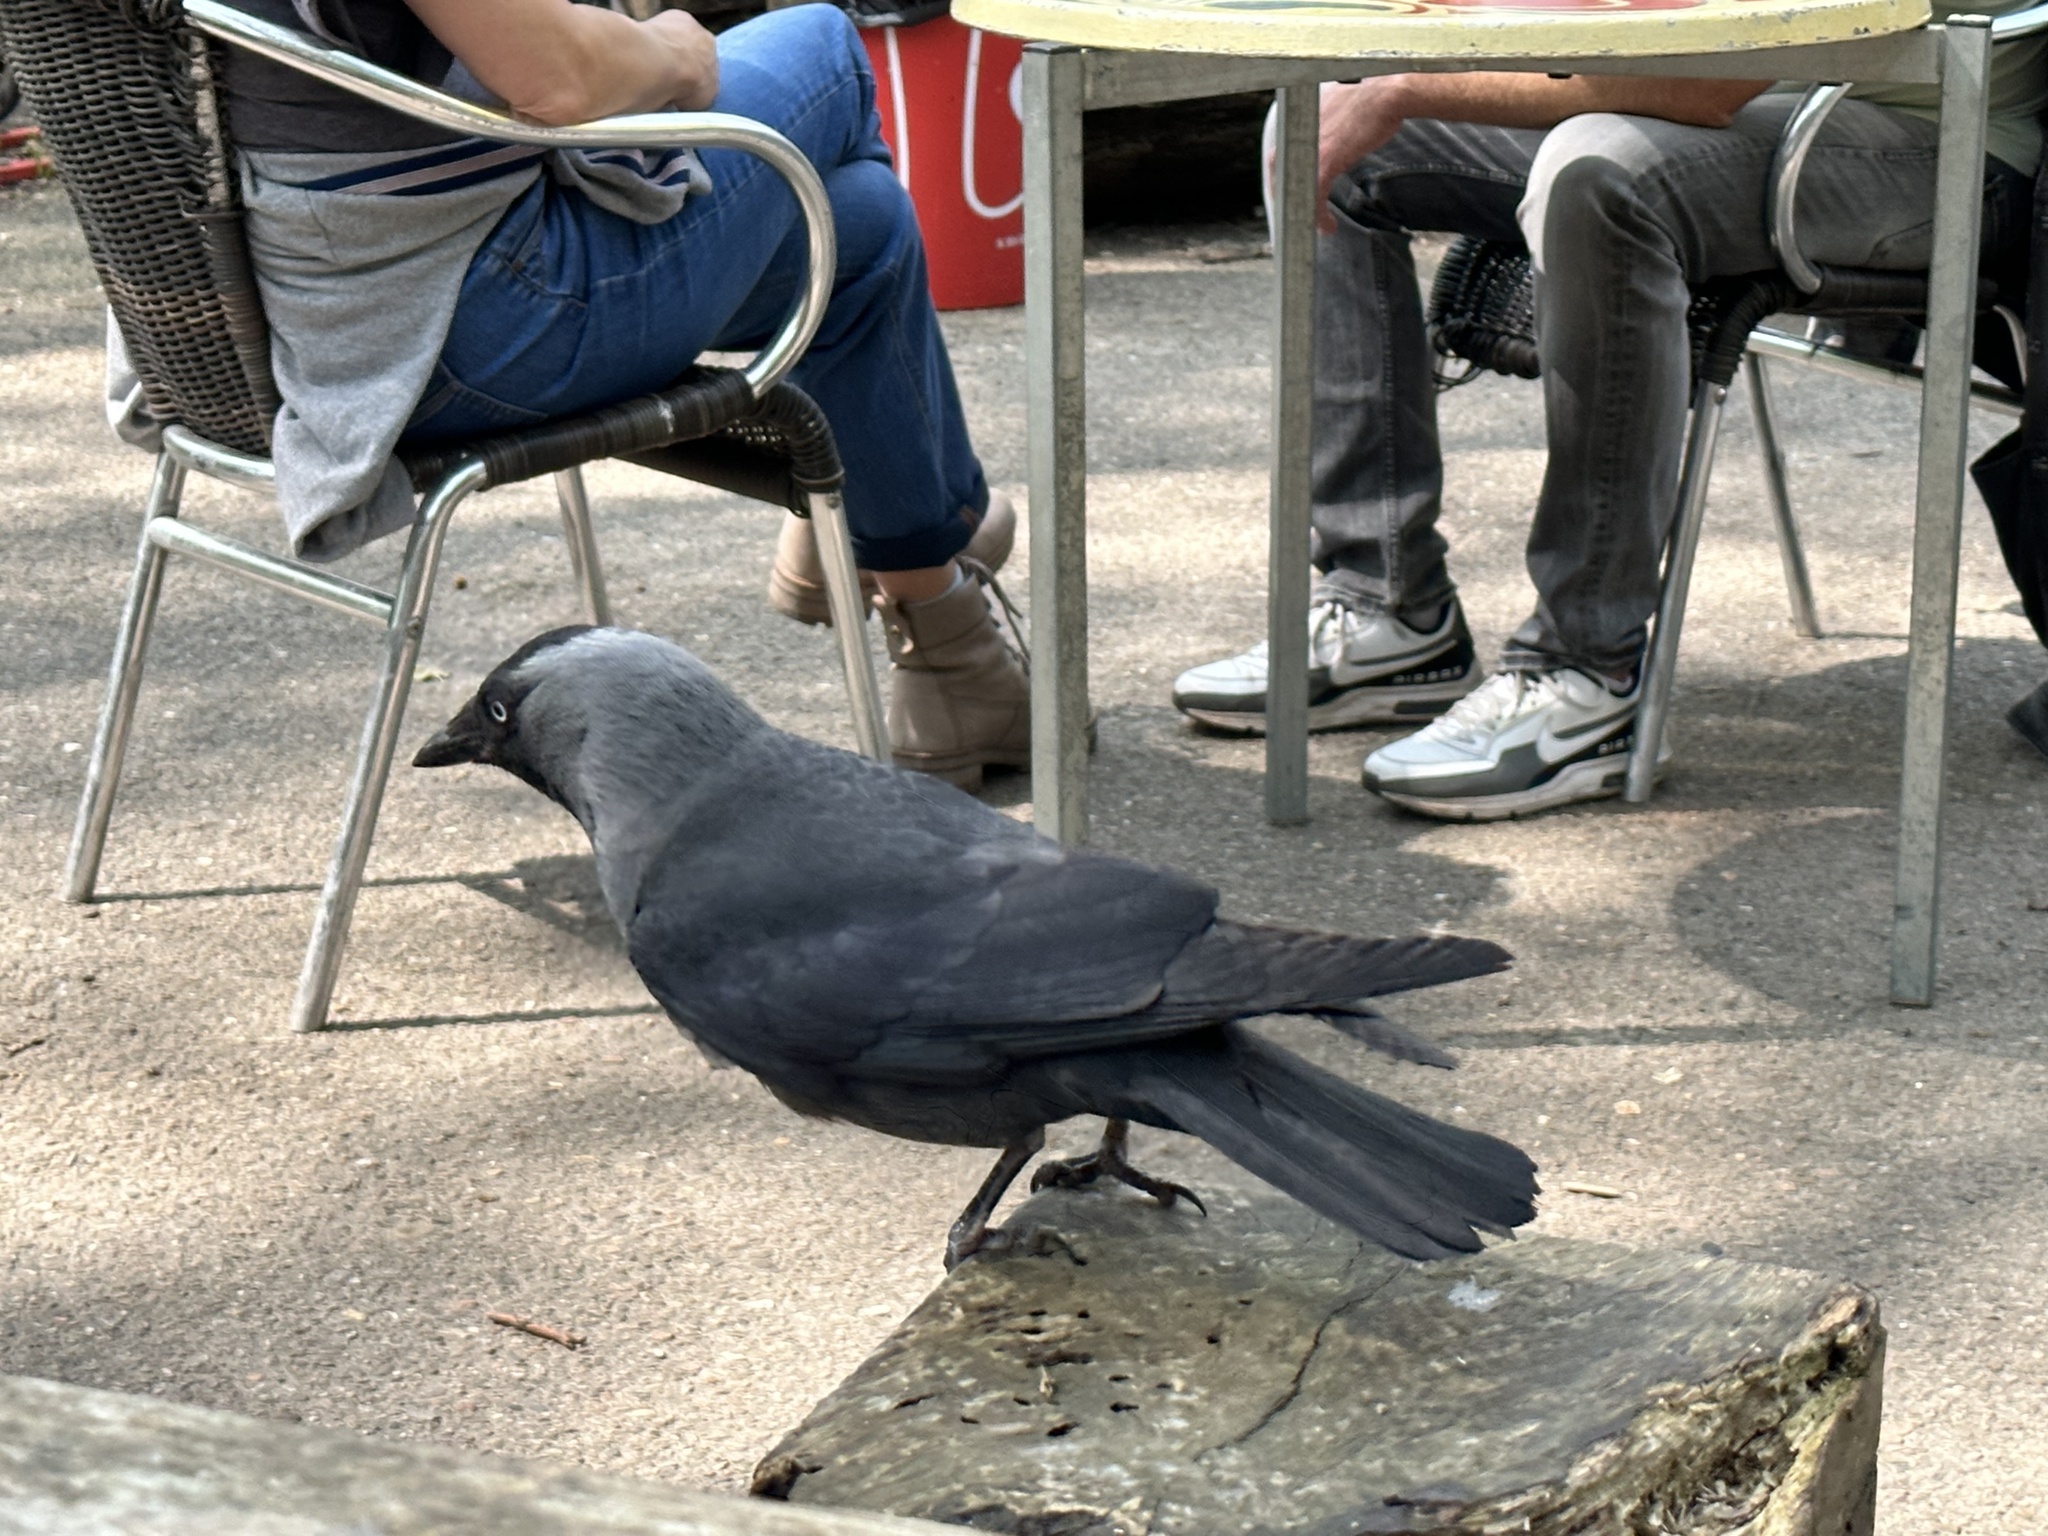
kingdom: Animalia
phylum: Chordata
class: Aves
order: Passeriformes
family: Corvidae
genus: Coloeus
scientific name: Coloeus monedula
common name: Western jackdaw
